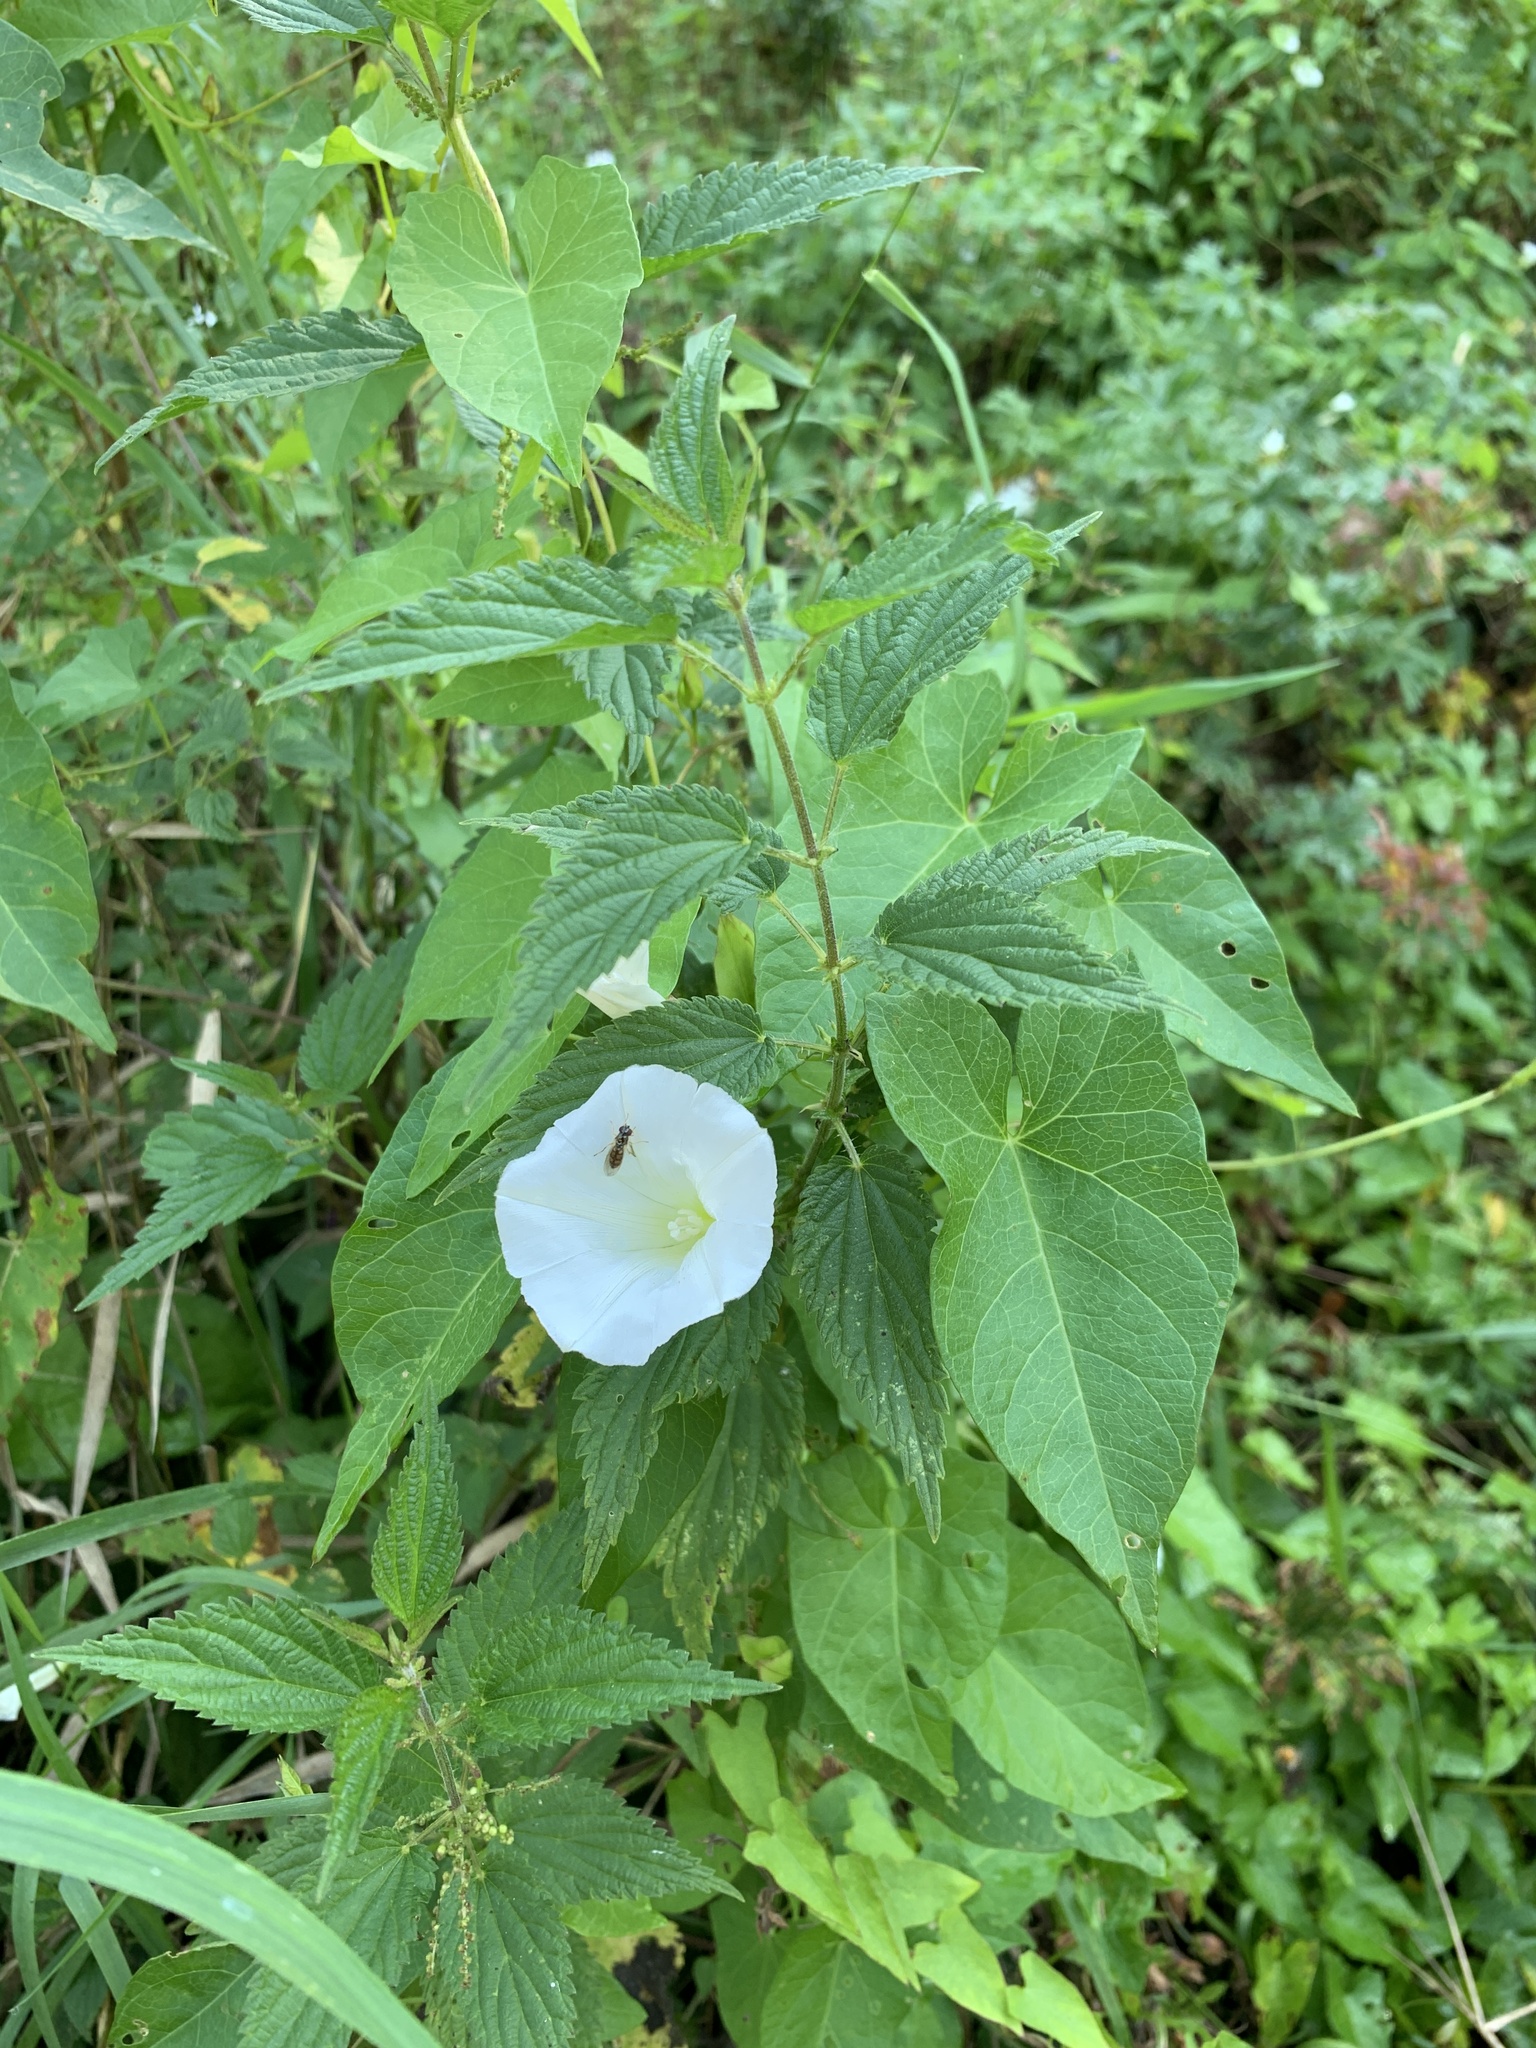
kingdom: Plantae
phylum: Tracheophyta
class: Magnoliopsida
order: Solanales
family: Convolvulaceae
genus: Calystegia
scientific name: Calystegia sepium
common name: Hedge bindweed
